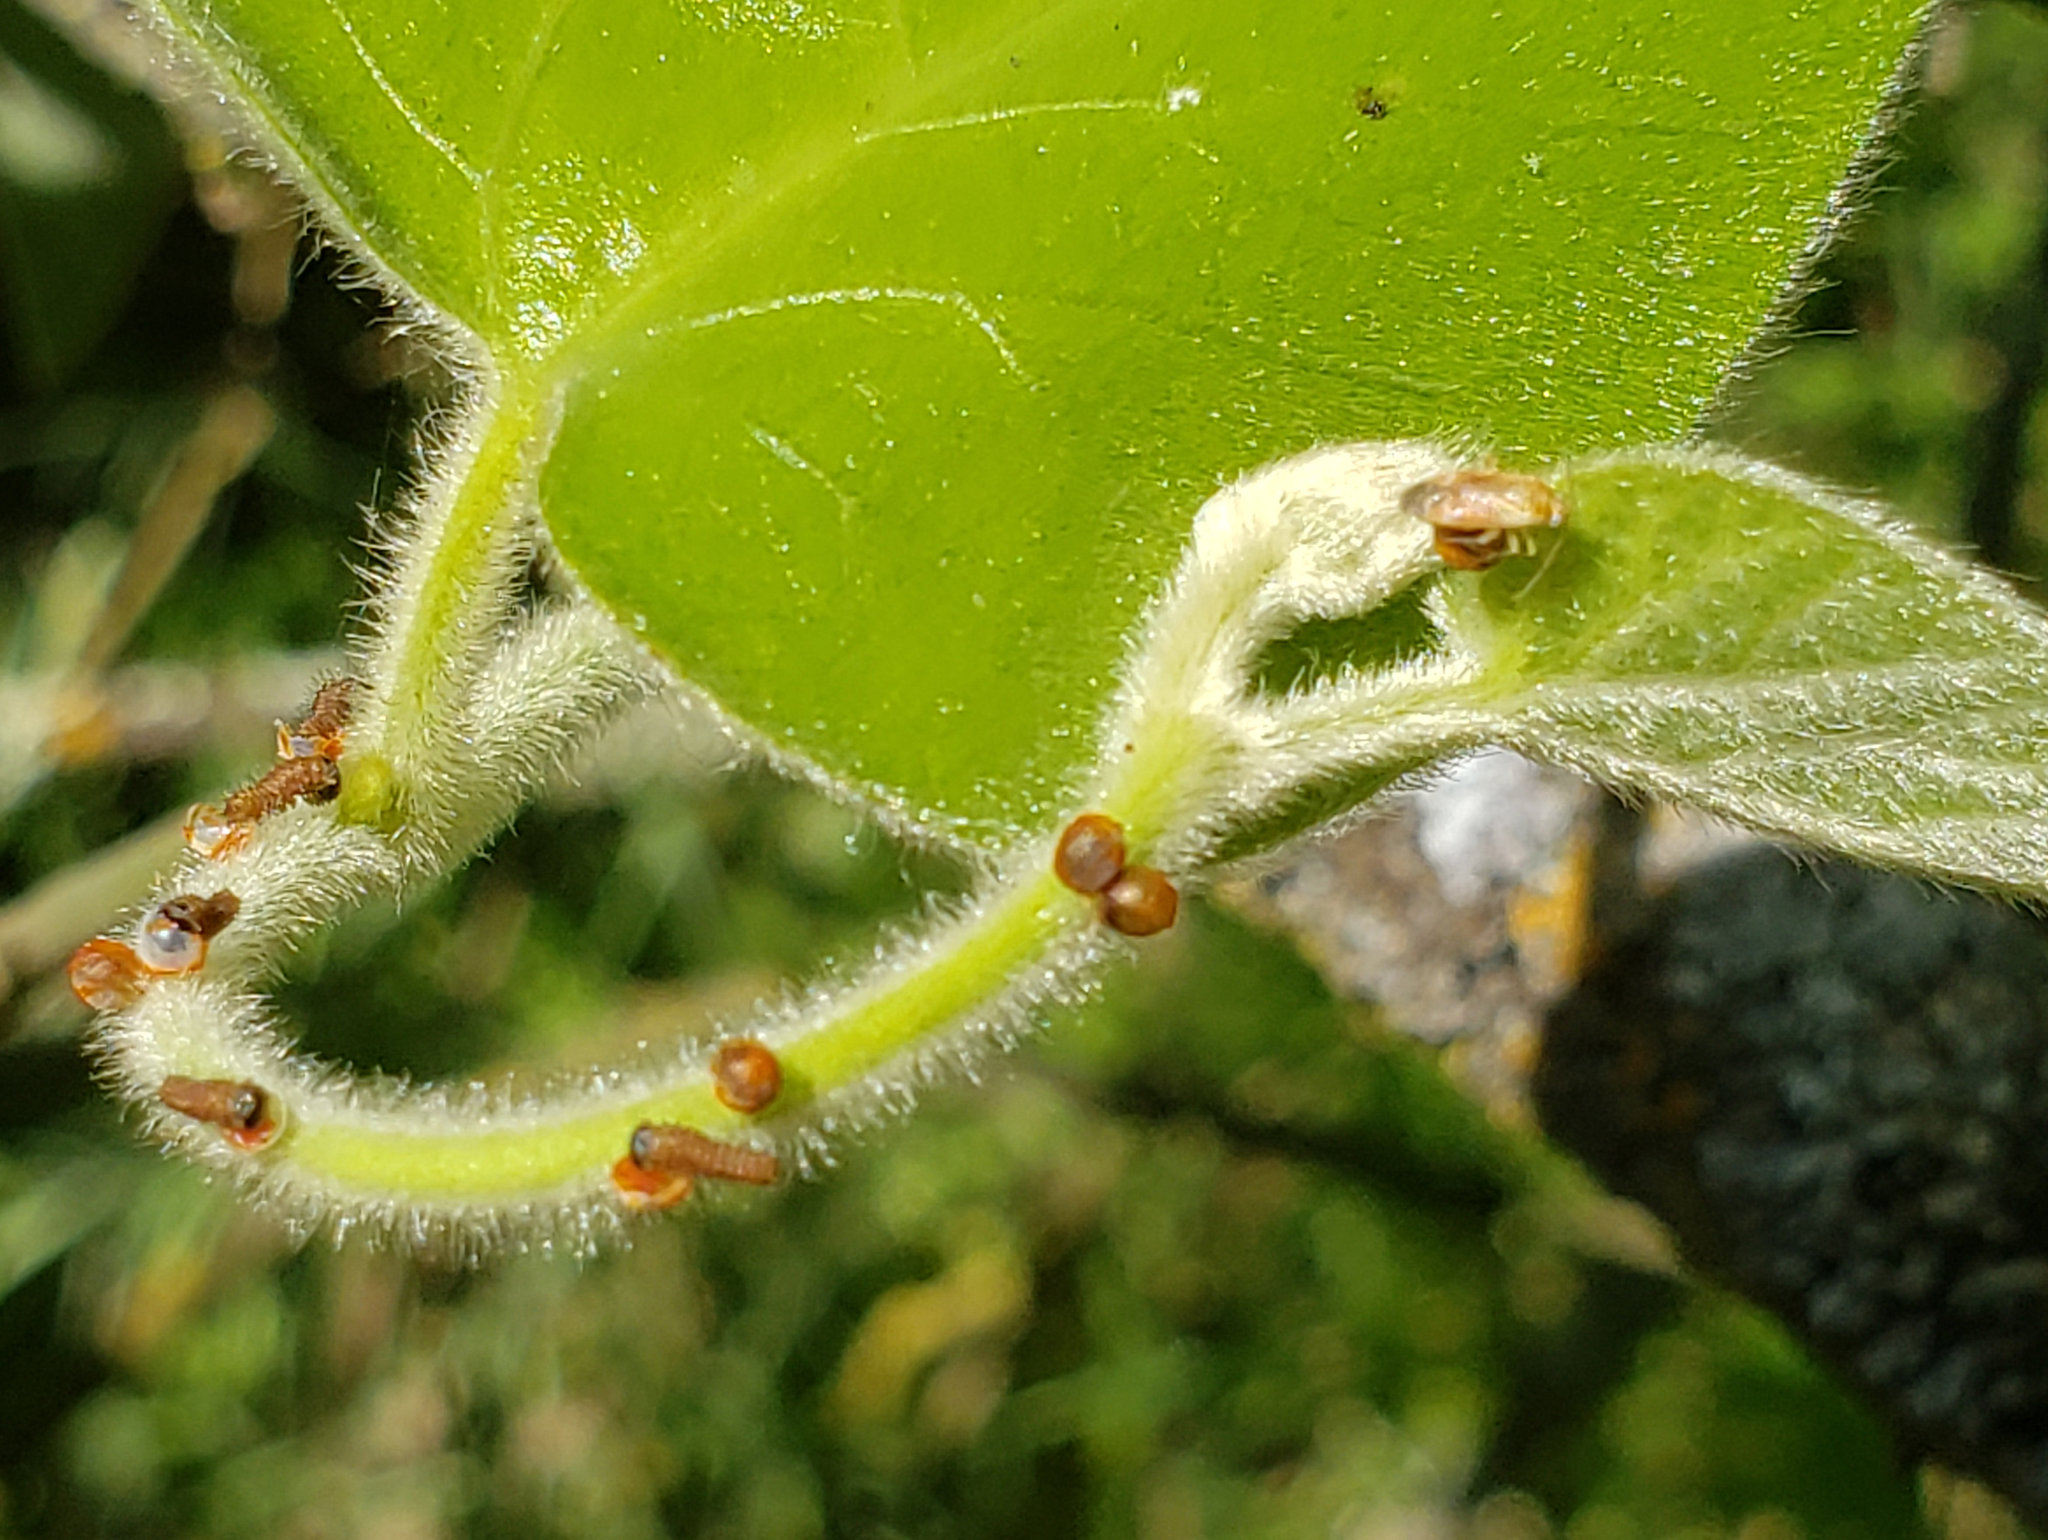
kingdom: Animalia
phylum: Arthropoda
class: Insecta
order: Lepidoptera
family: Papilionidae
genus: Battus
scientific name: Battus philenor
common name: Pipevine swallowtail
